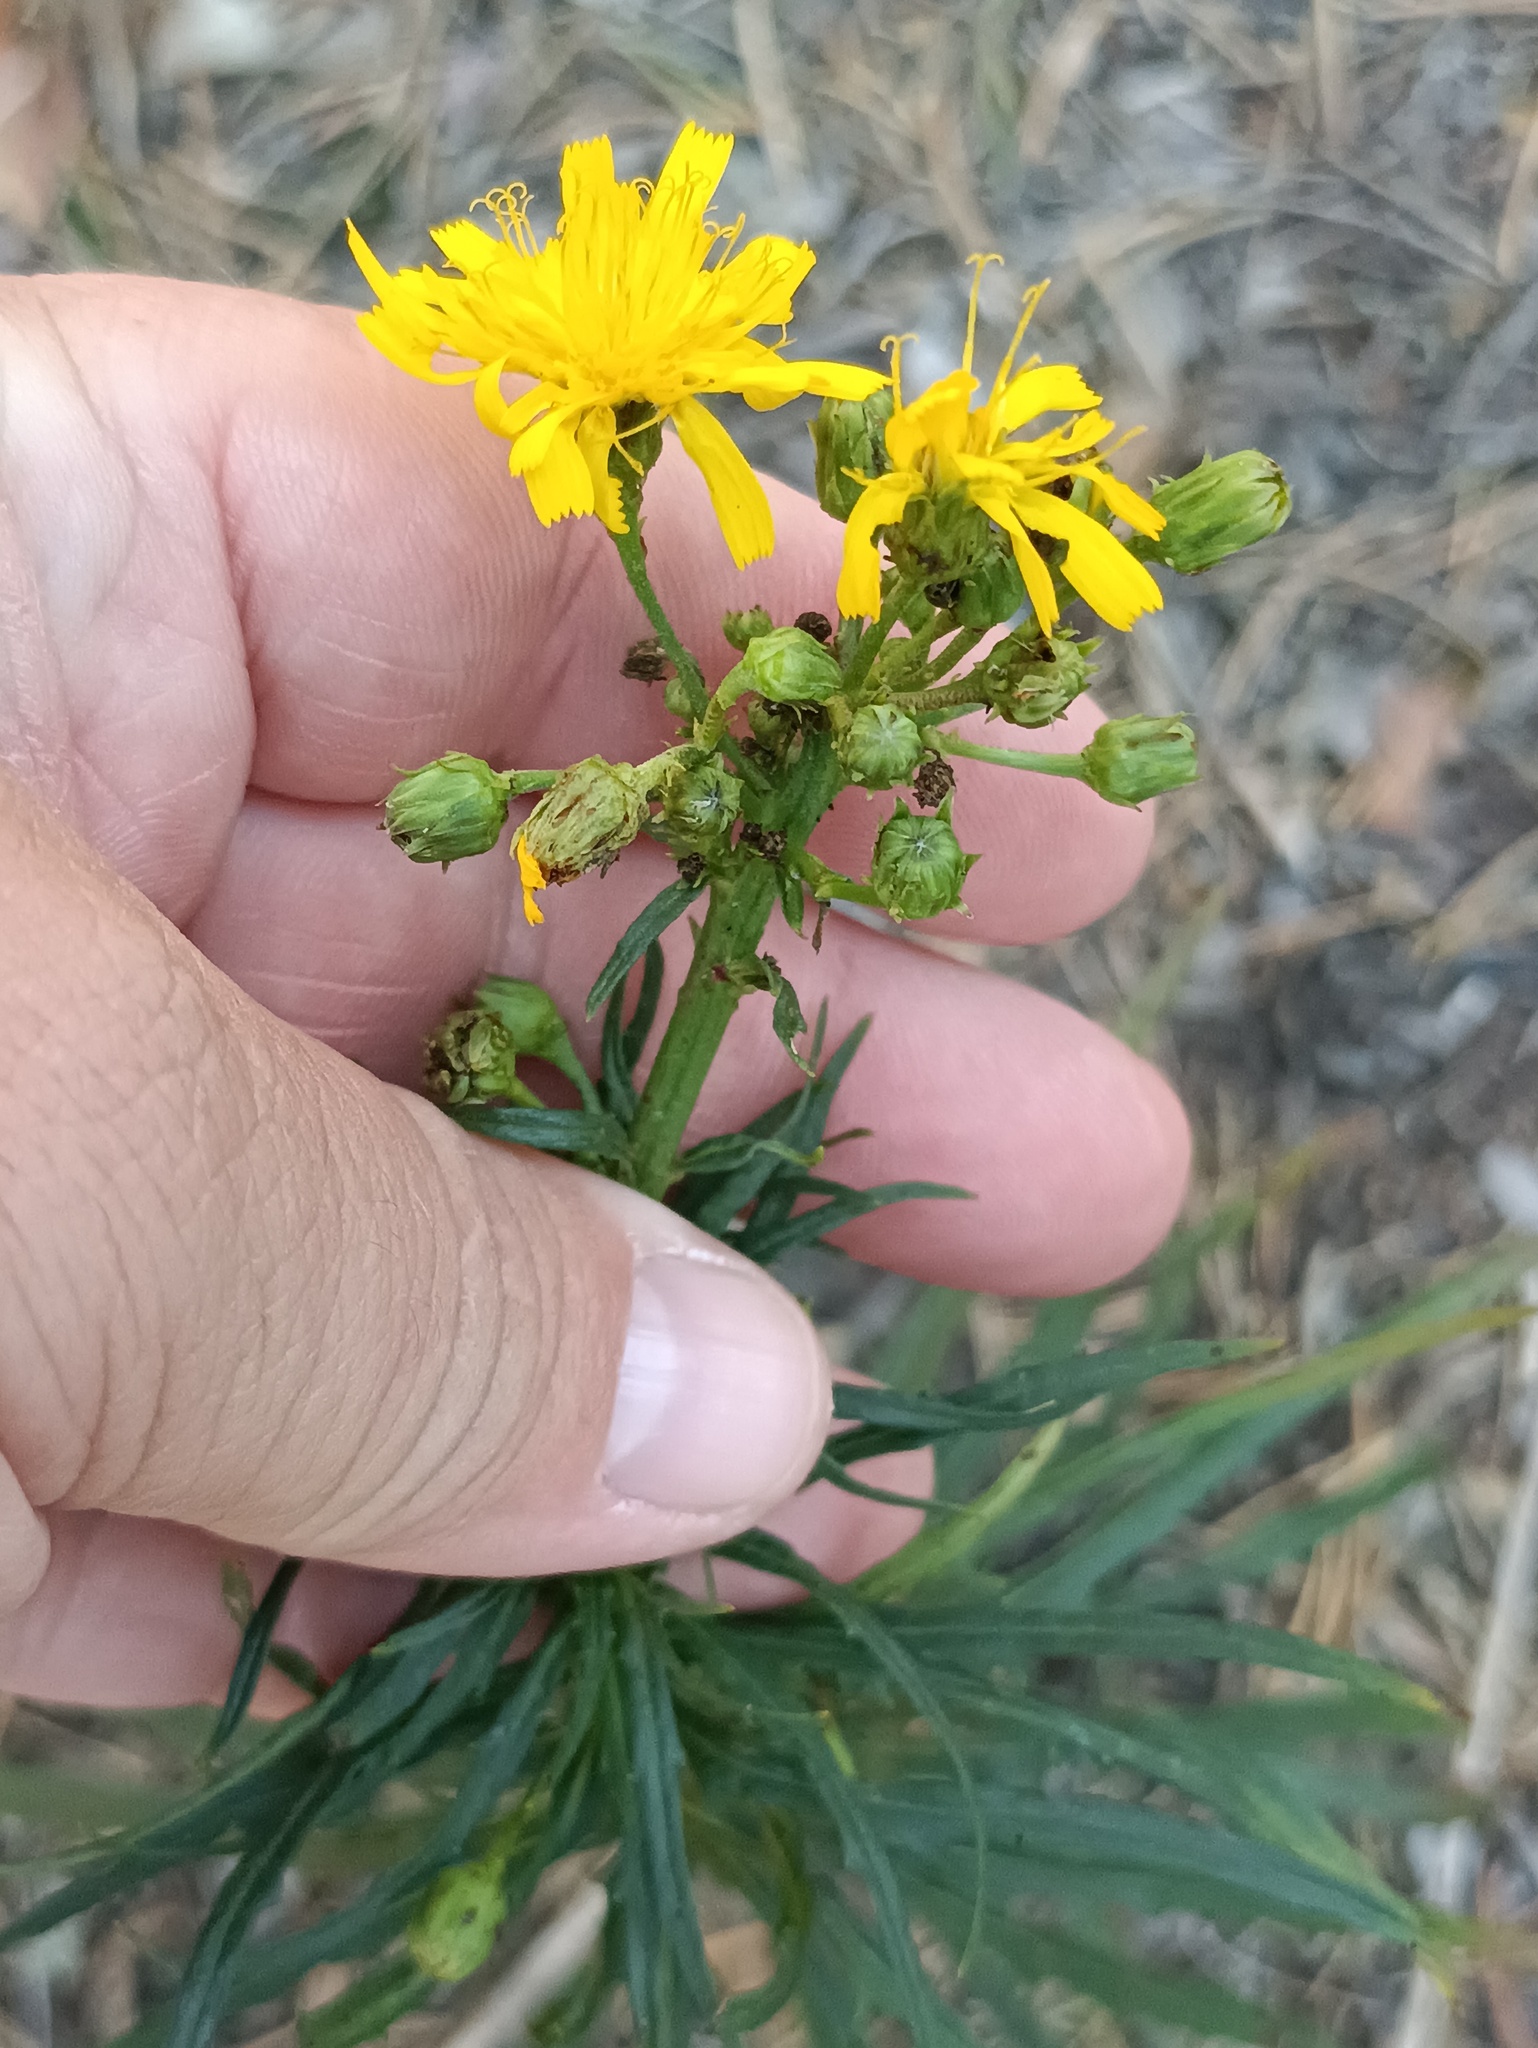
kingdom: Plantae
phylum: Tracheophyta
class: Magnoliopsida
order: Asterales
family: Asteraceae
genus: Hieracium
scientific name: Hieracium umbellatum
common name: Northern hawkweed
